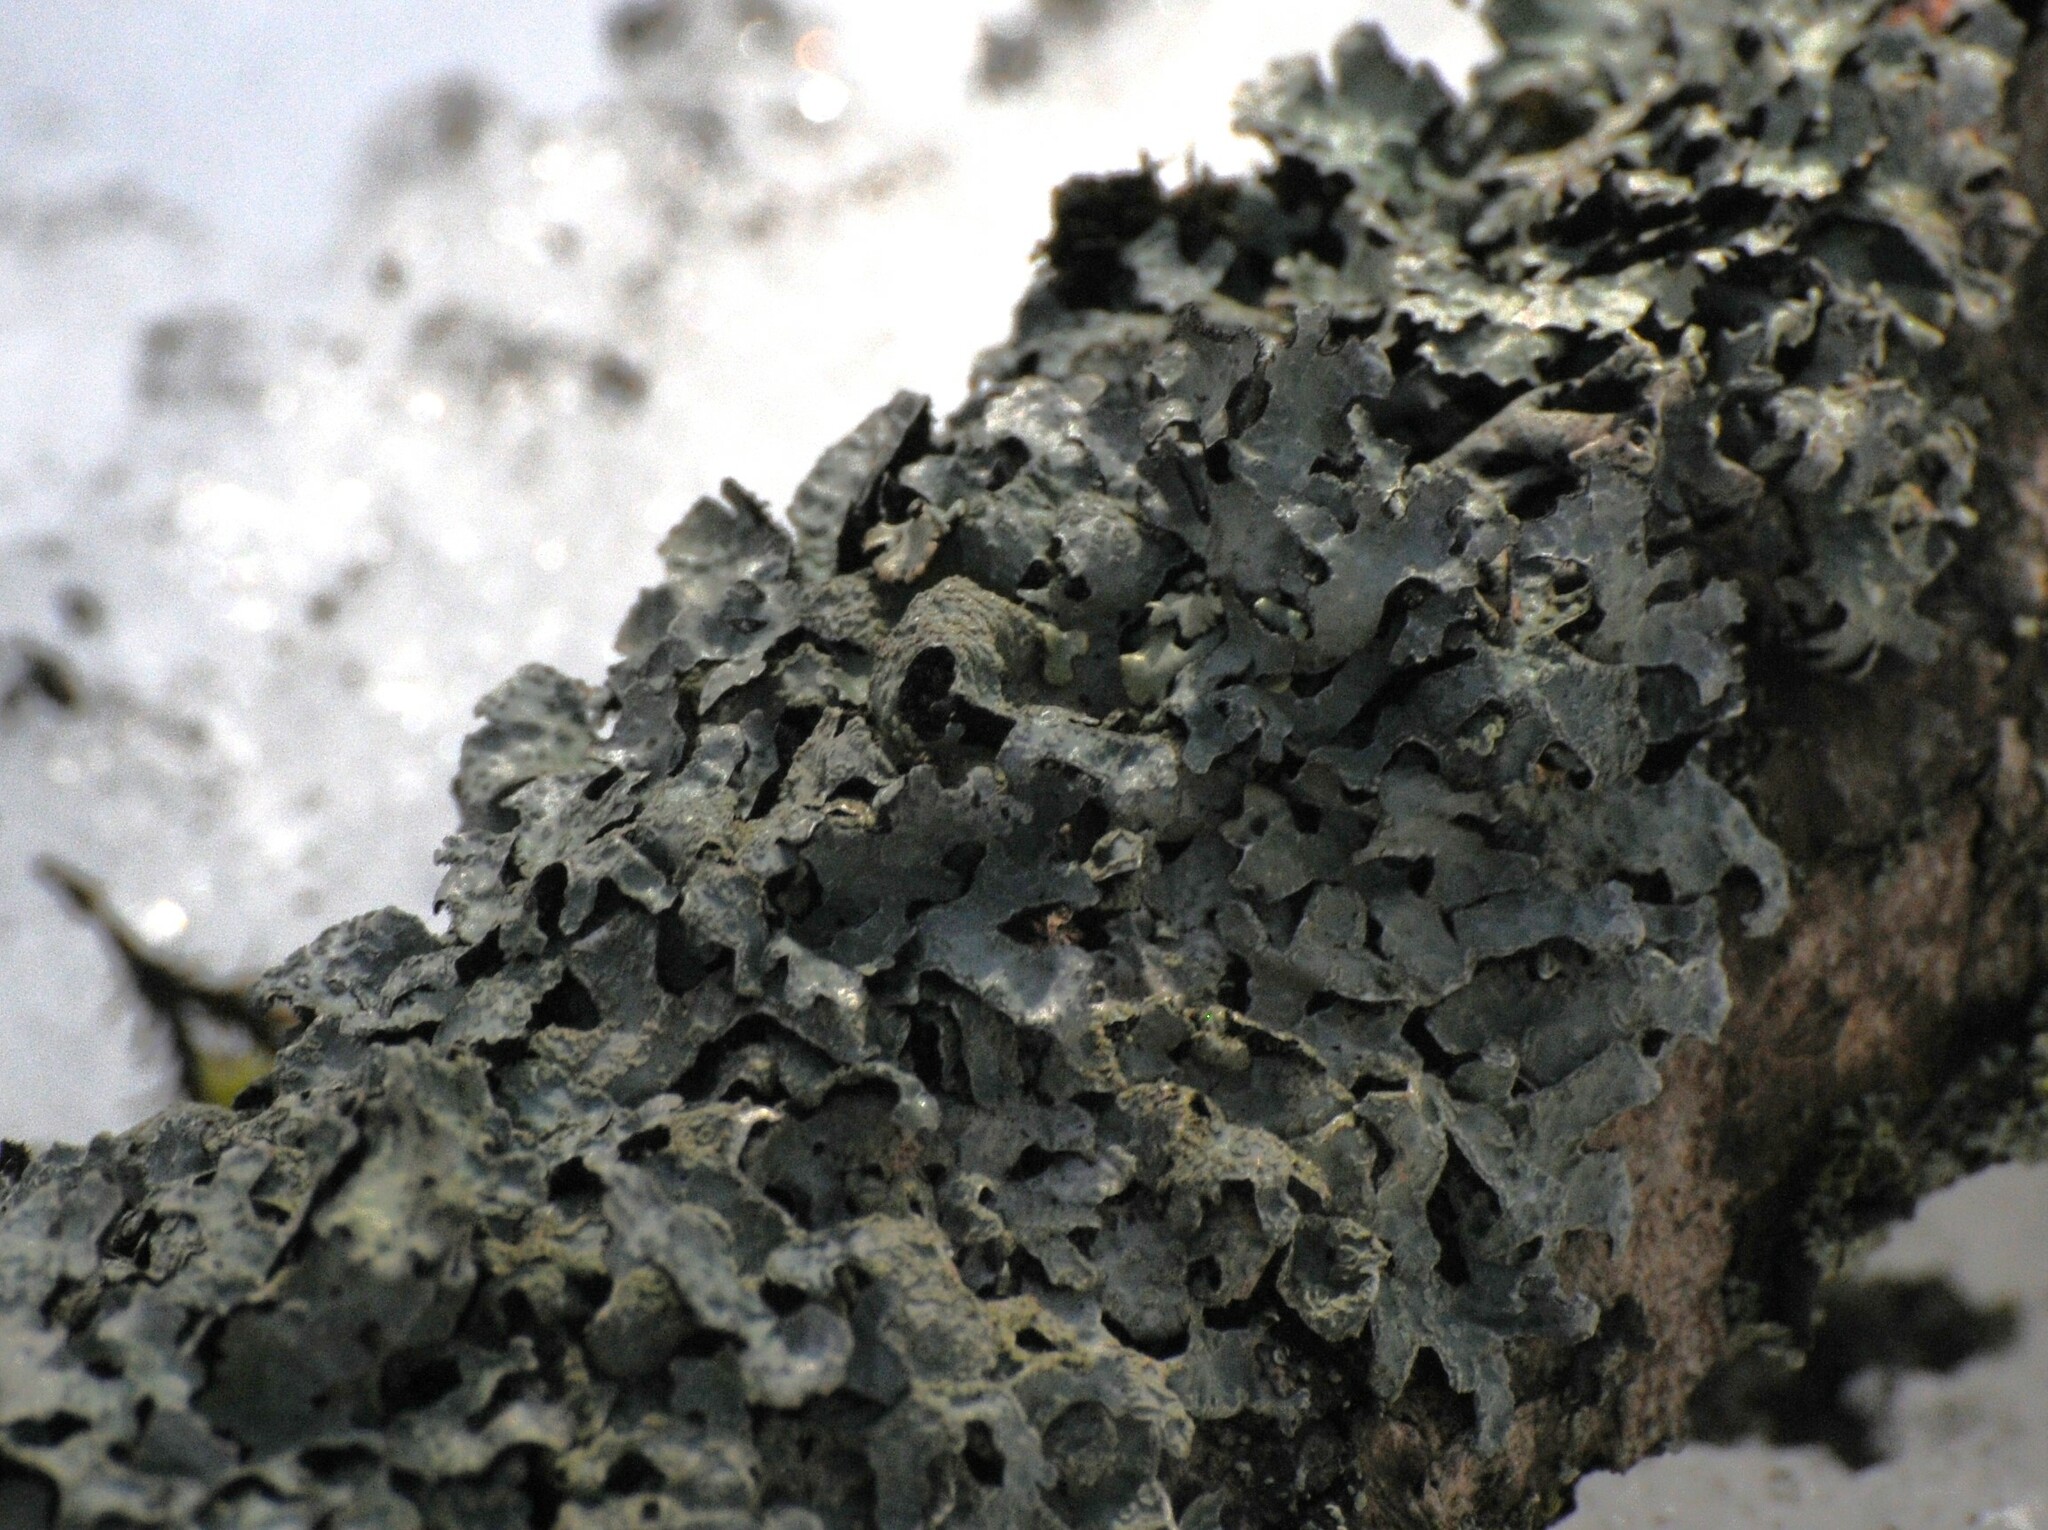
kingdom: Fungi
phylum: Ascomycota
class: Lecanoromycetes
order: Lecanorales
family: Parmeliaceae
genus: Parmelia
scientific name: Parmelia sulcata
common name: Netted shield lichen
